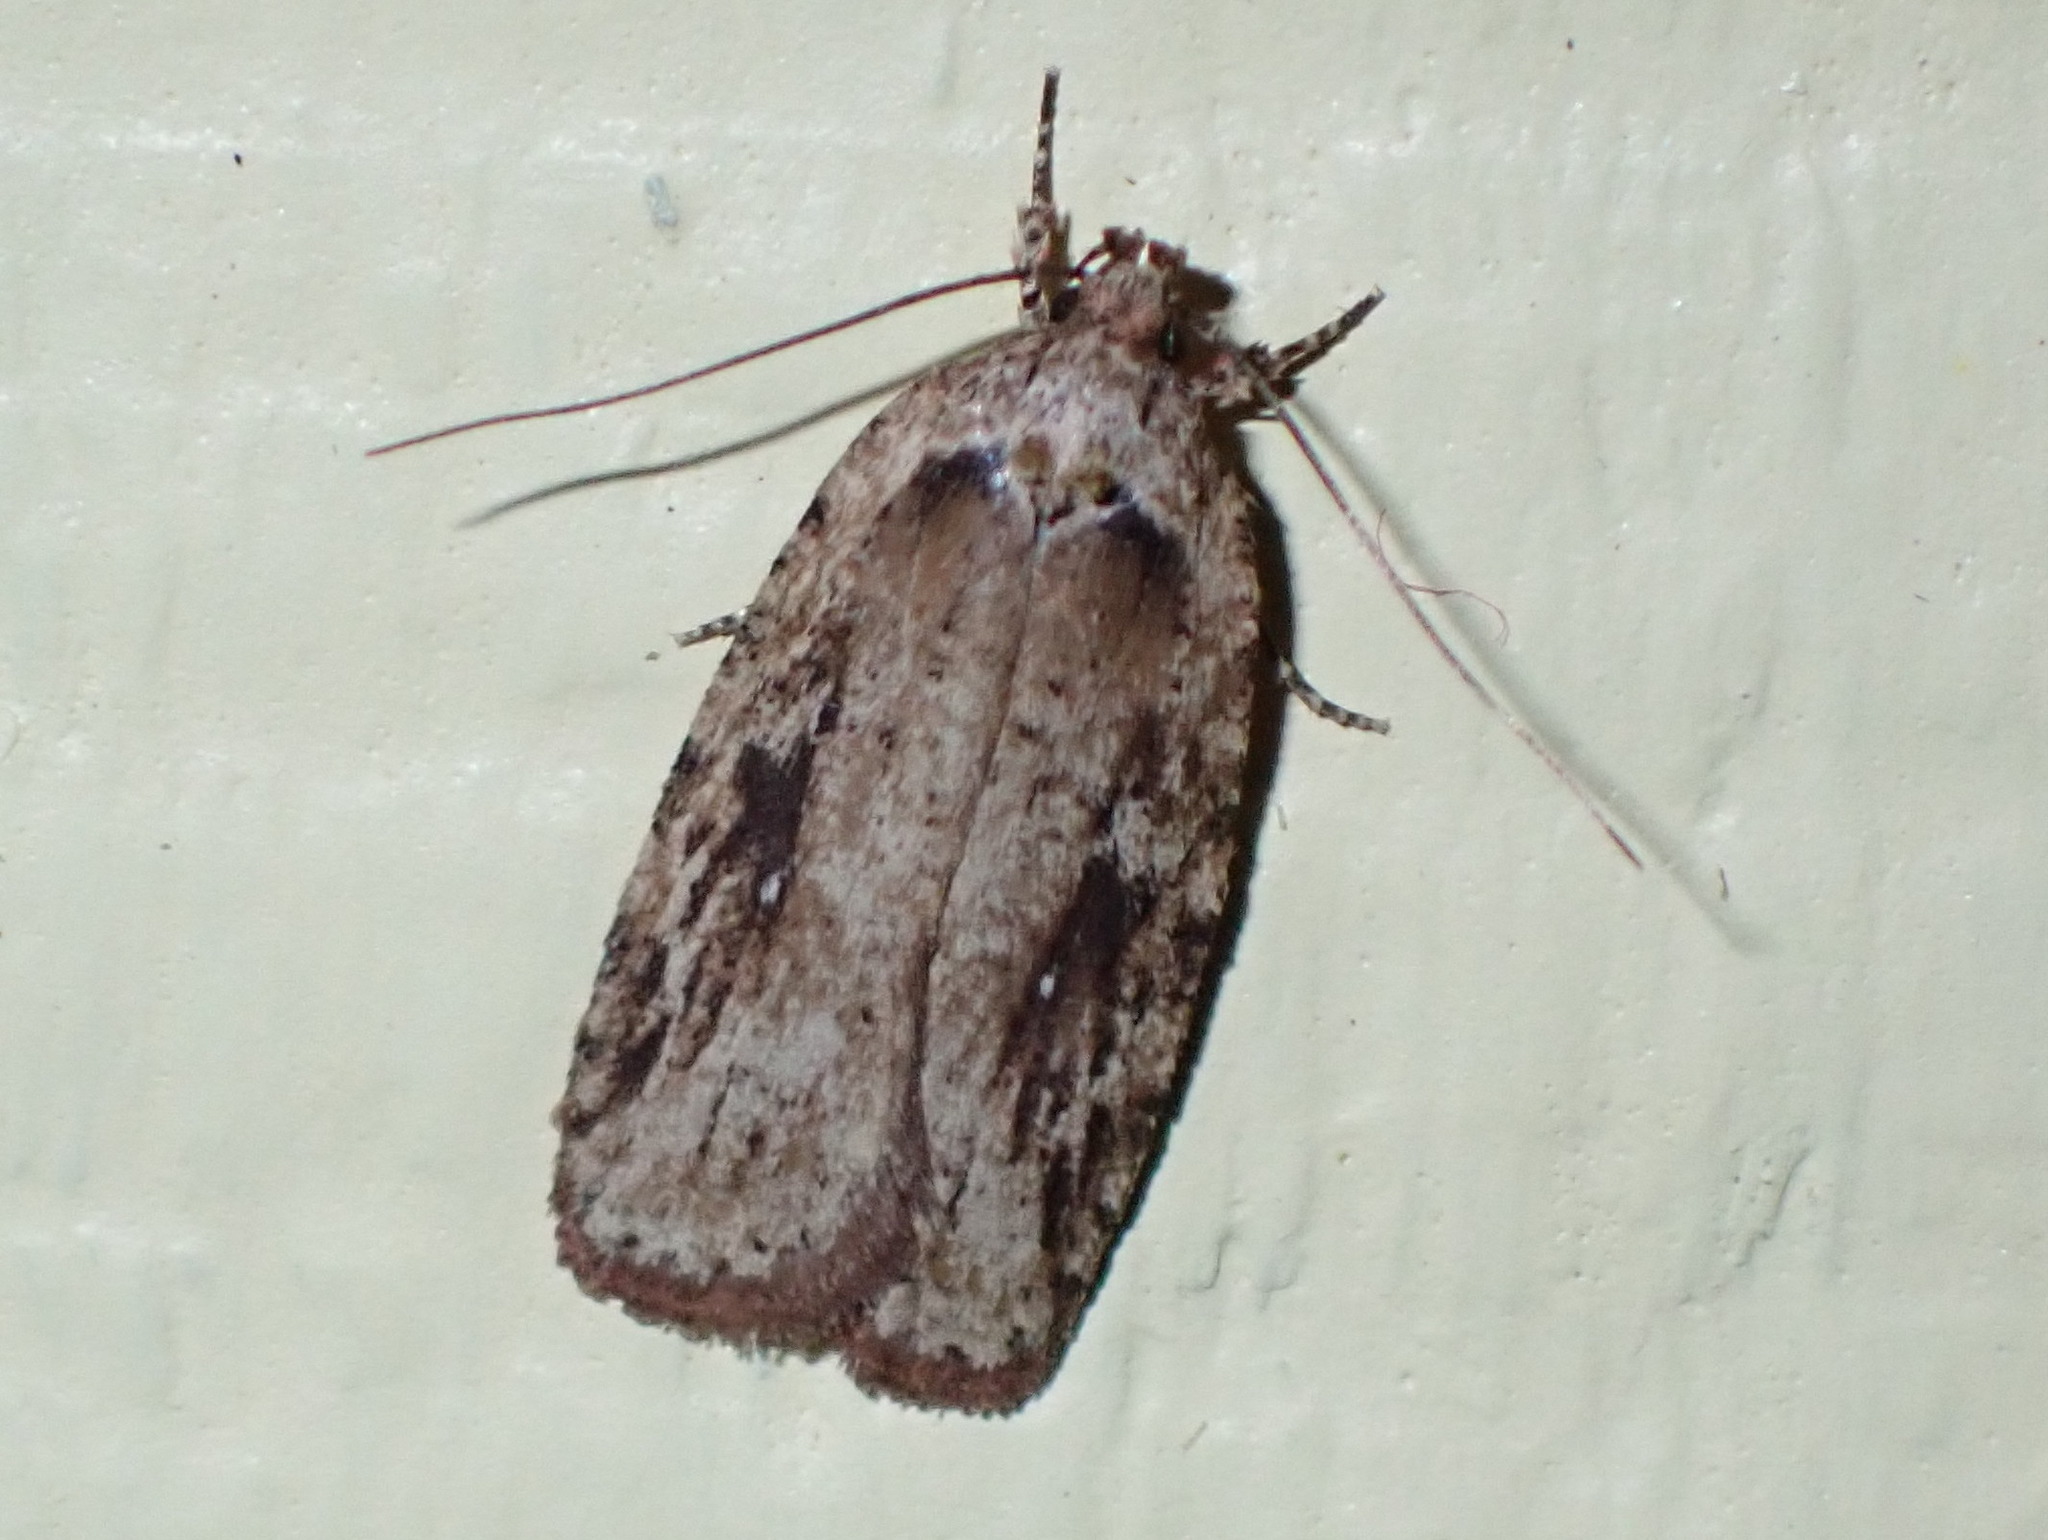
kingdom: Animalia
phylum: Arthropoda
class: Insecta
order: Lepidoptera
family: Depressariidae
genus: Agonopterix
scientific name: Agonopterix pulvipennella
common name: Goldenrod leafffolder
